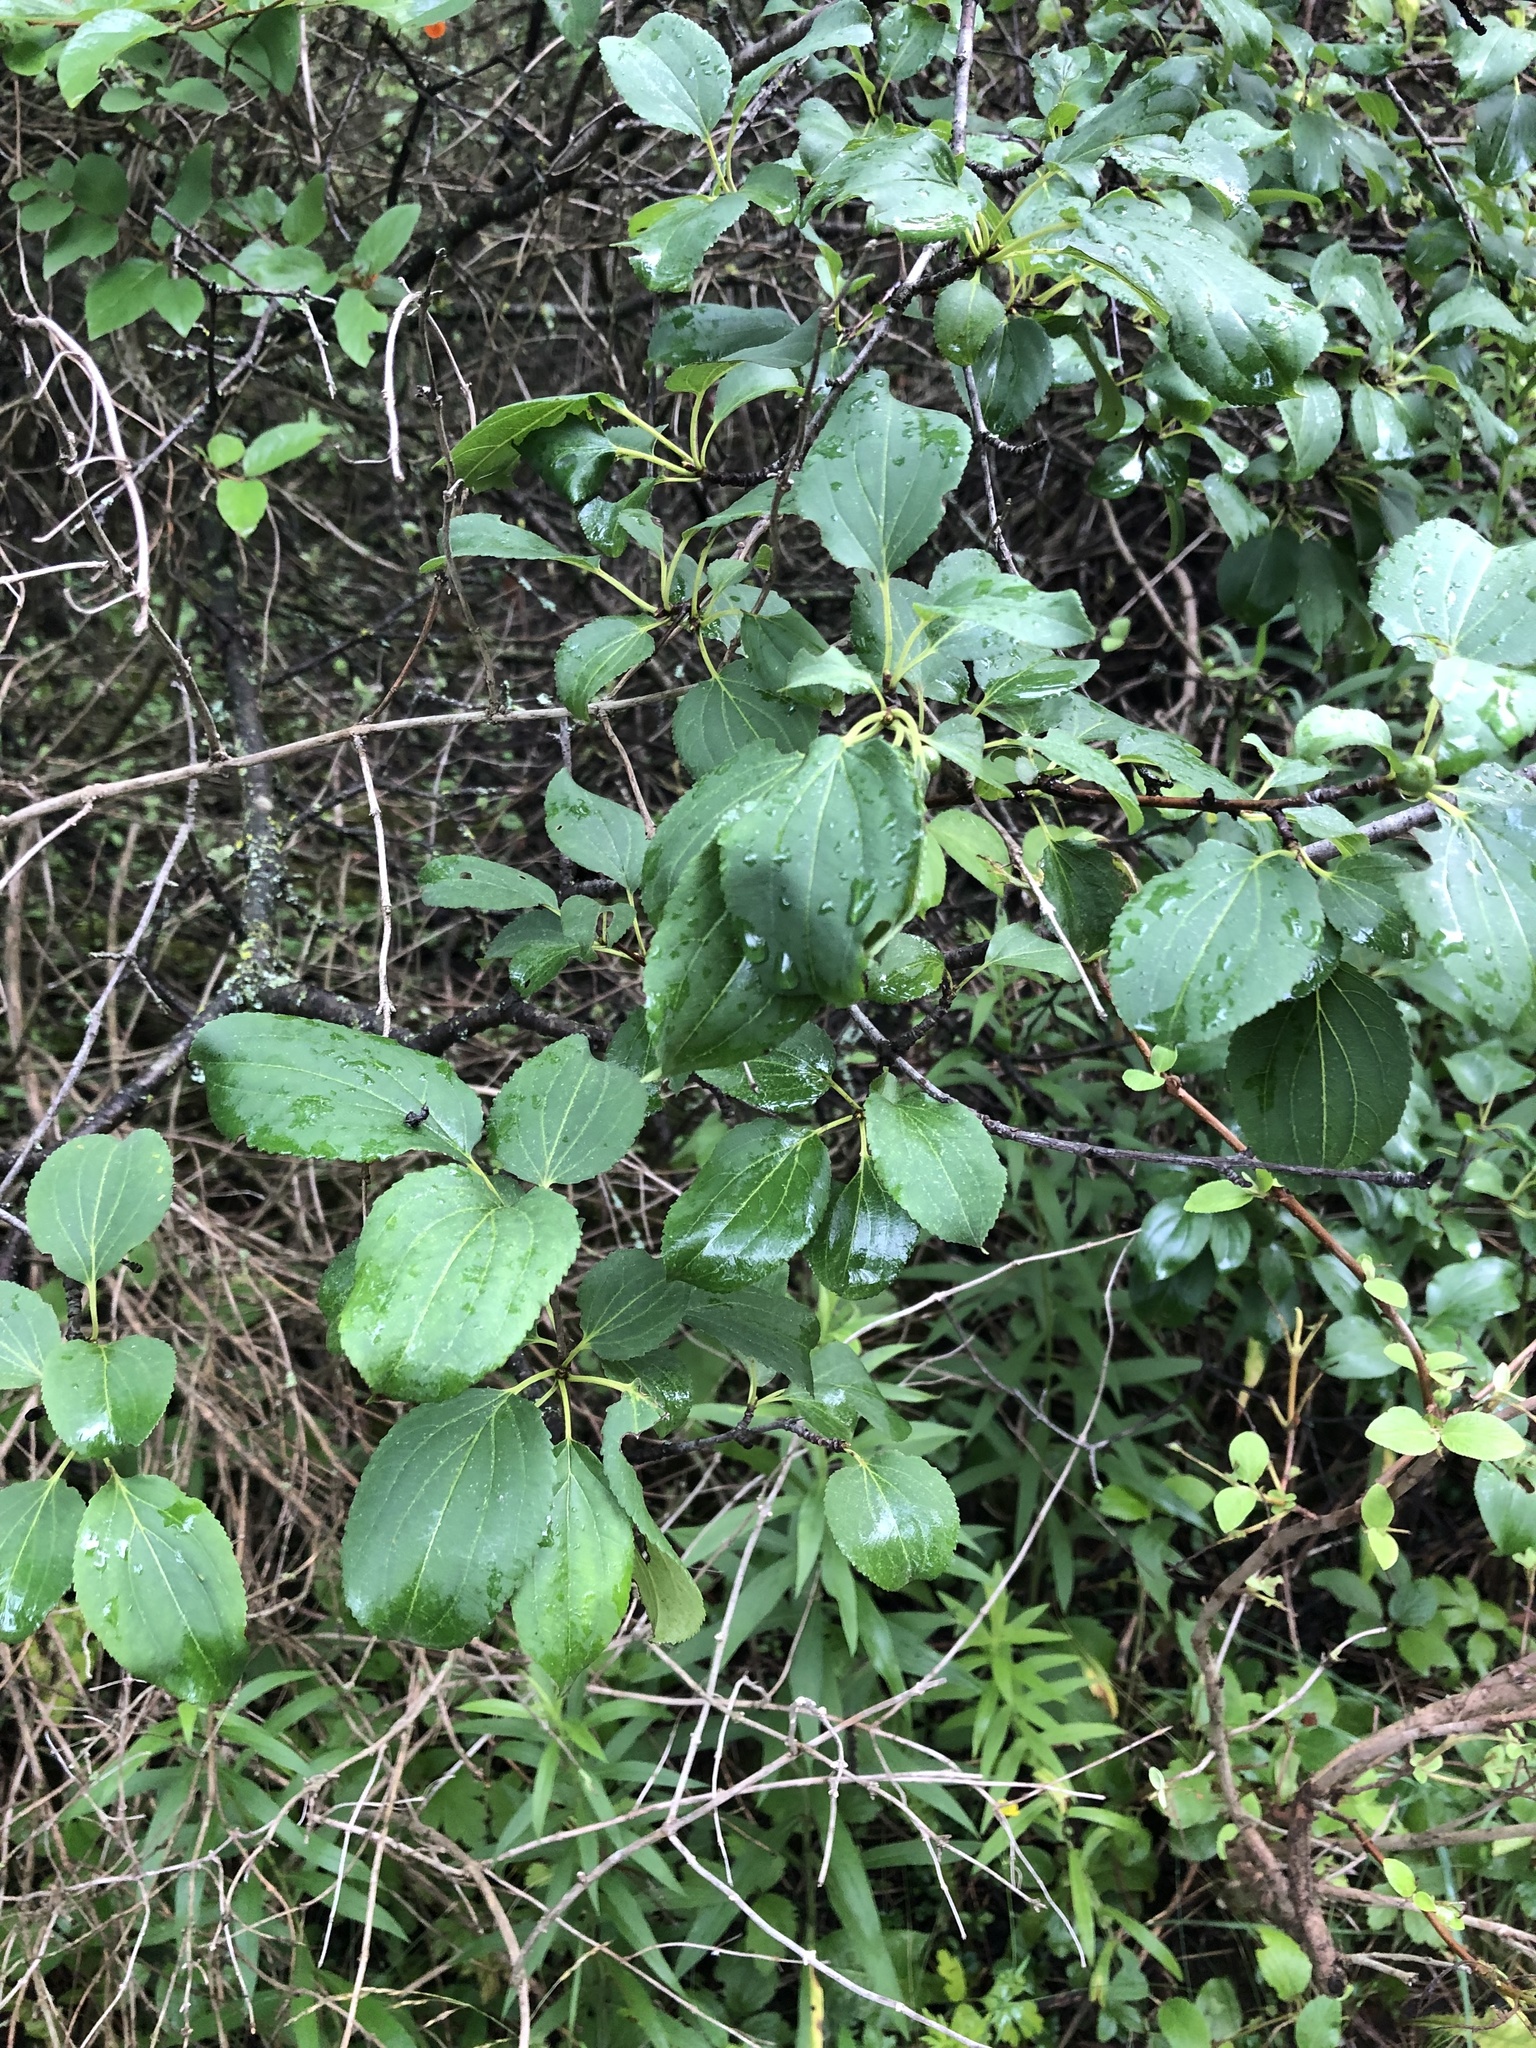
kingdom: Plantae
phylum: Tracheophyta
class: Magnoliopsida
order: Rosales
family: Rhamnaceae
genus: Rhamnus
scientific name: Rhamnus cathartica
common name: Common buckthorn
